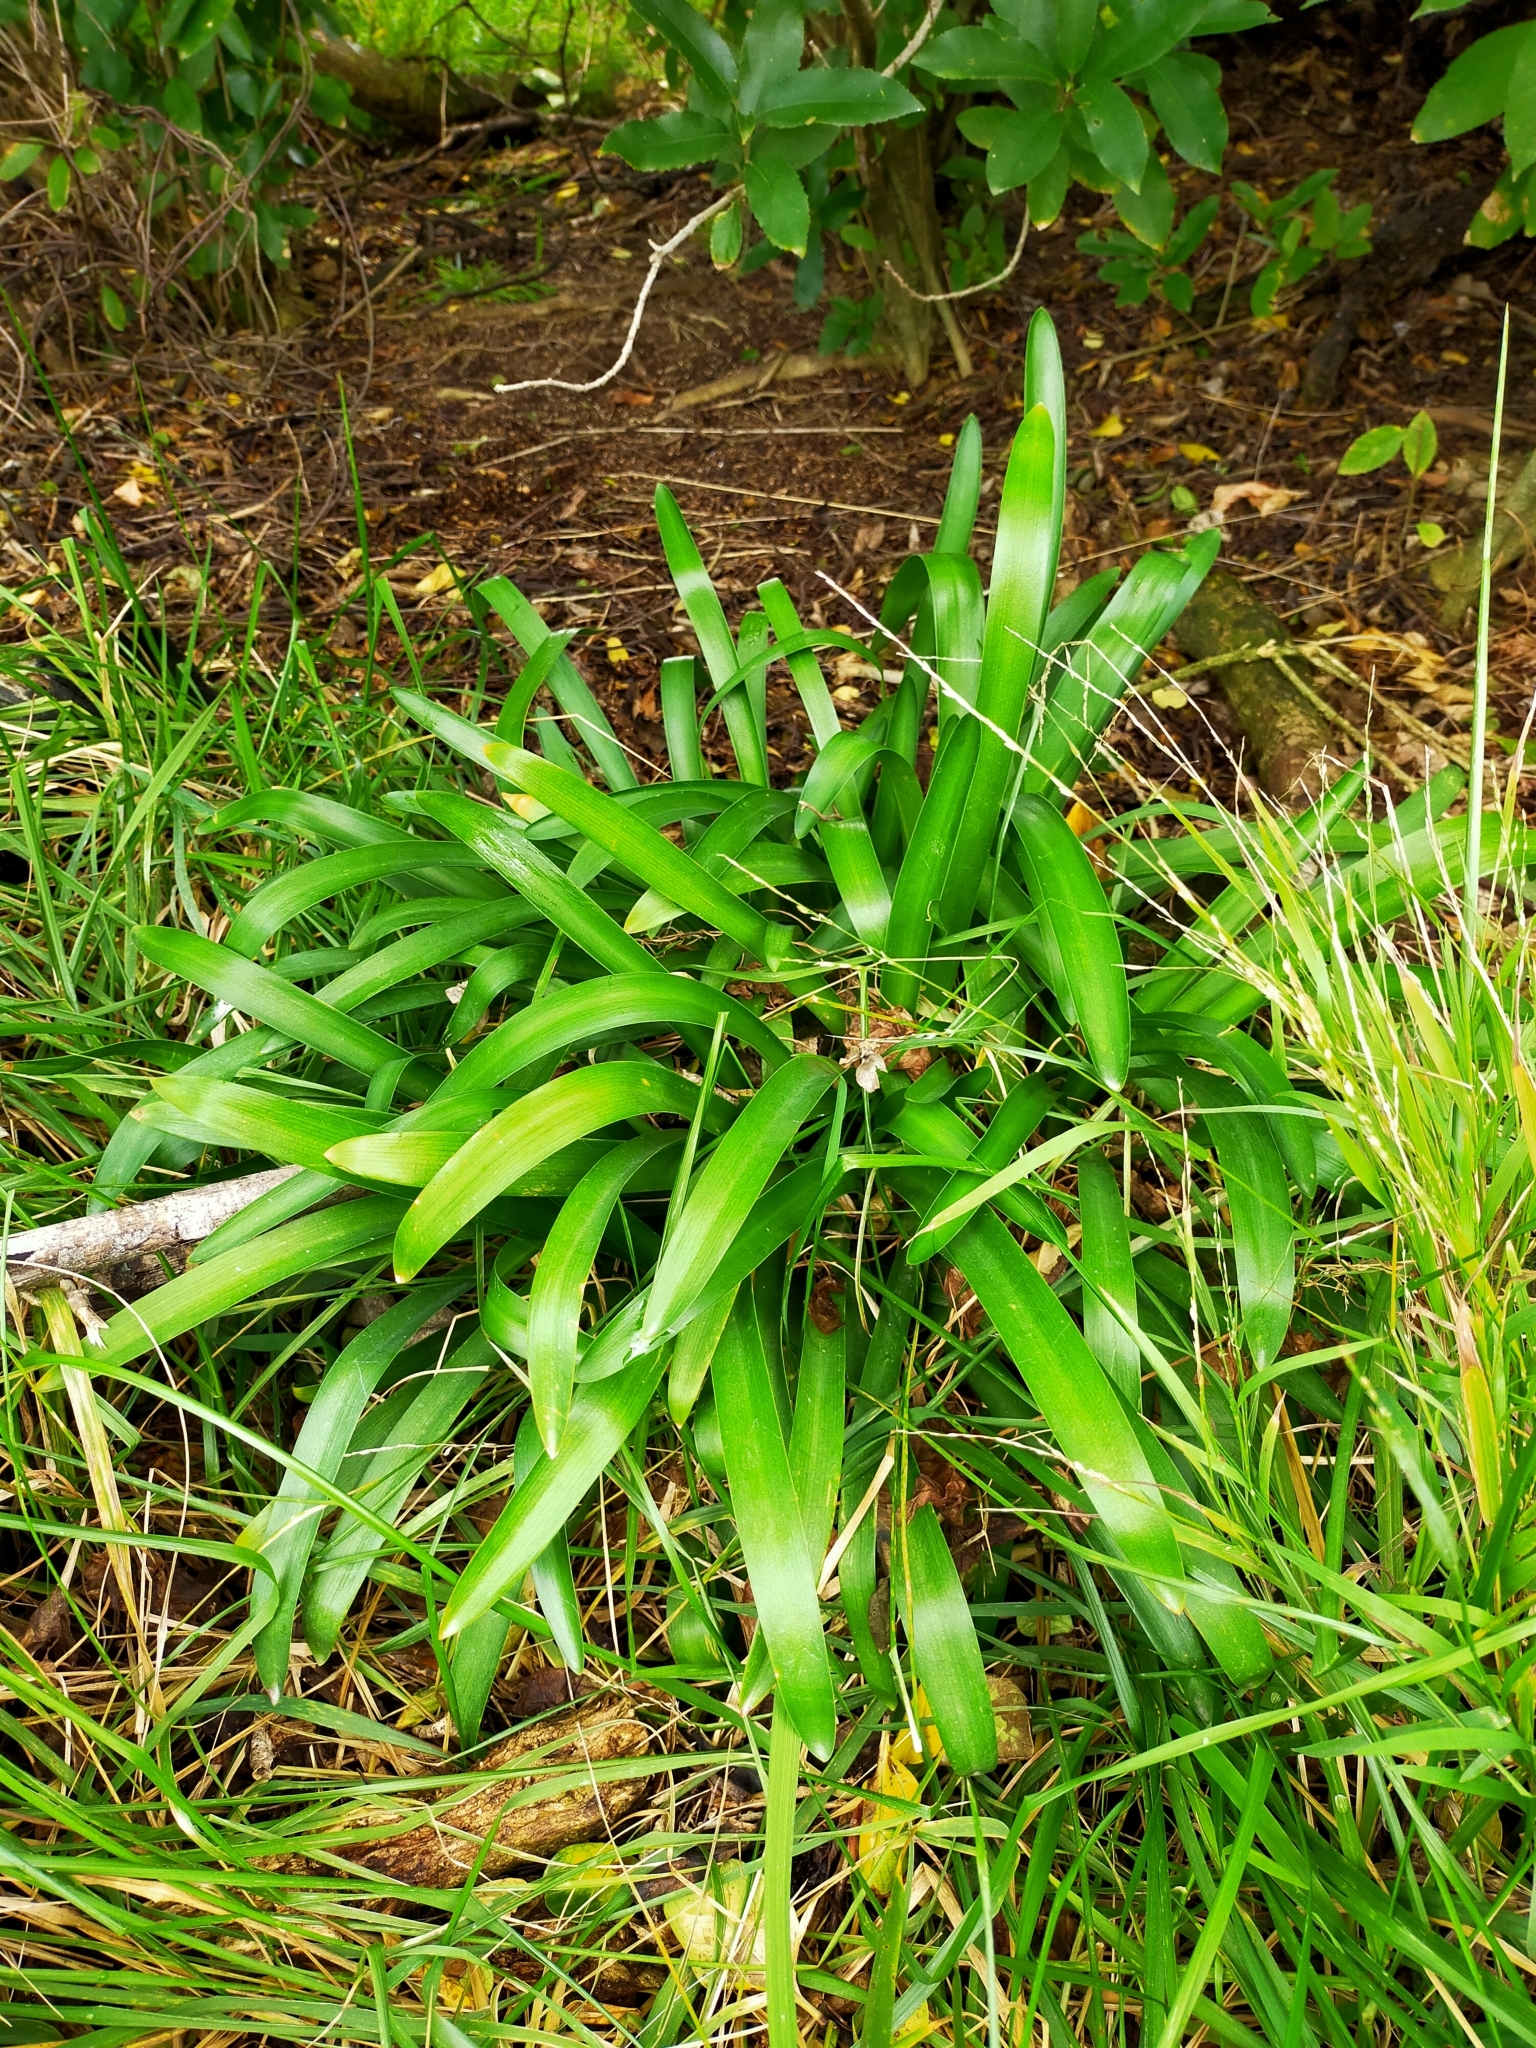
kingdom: Plantae
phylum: Tracheophyta
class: Liliopsida
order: Asparagales
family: Amaryllidaceae
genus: Agapanthus
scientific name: Agapanthus praecox
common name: African-lily
